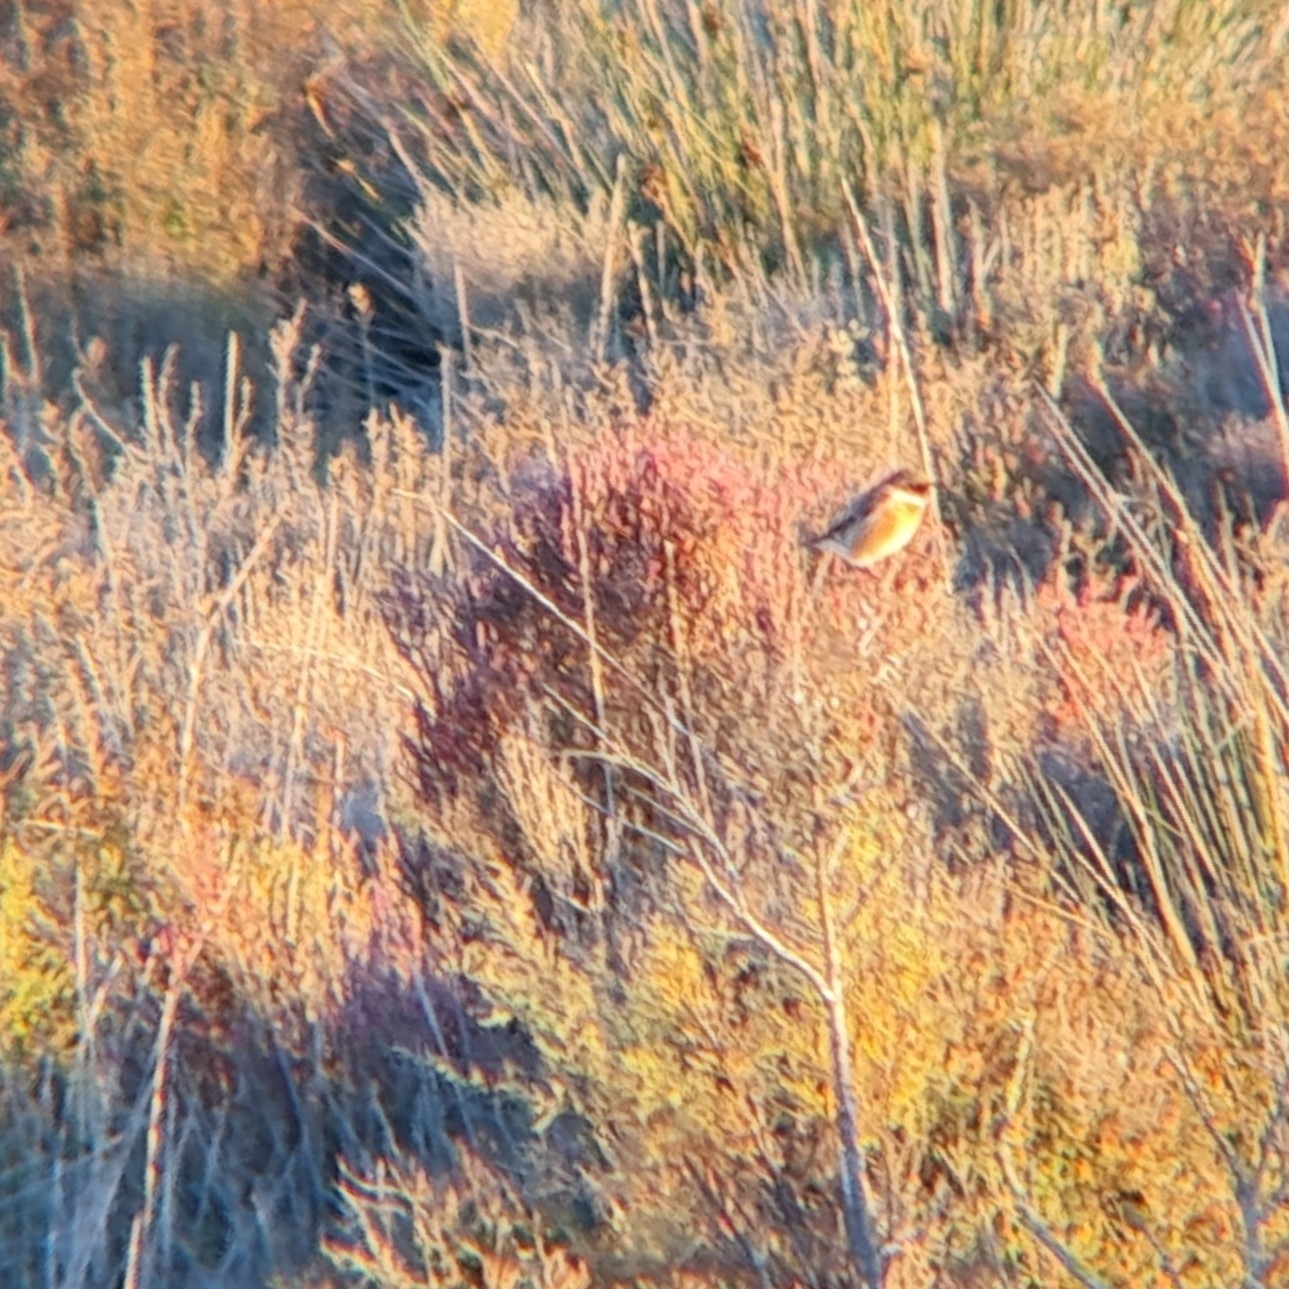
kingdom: Animalia
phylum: Chordata
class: Aves
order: Passeriformes
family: Muscicapidae
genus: Saxicola
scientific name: Saxicola rubicola
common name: European stonechat
